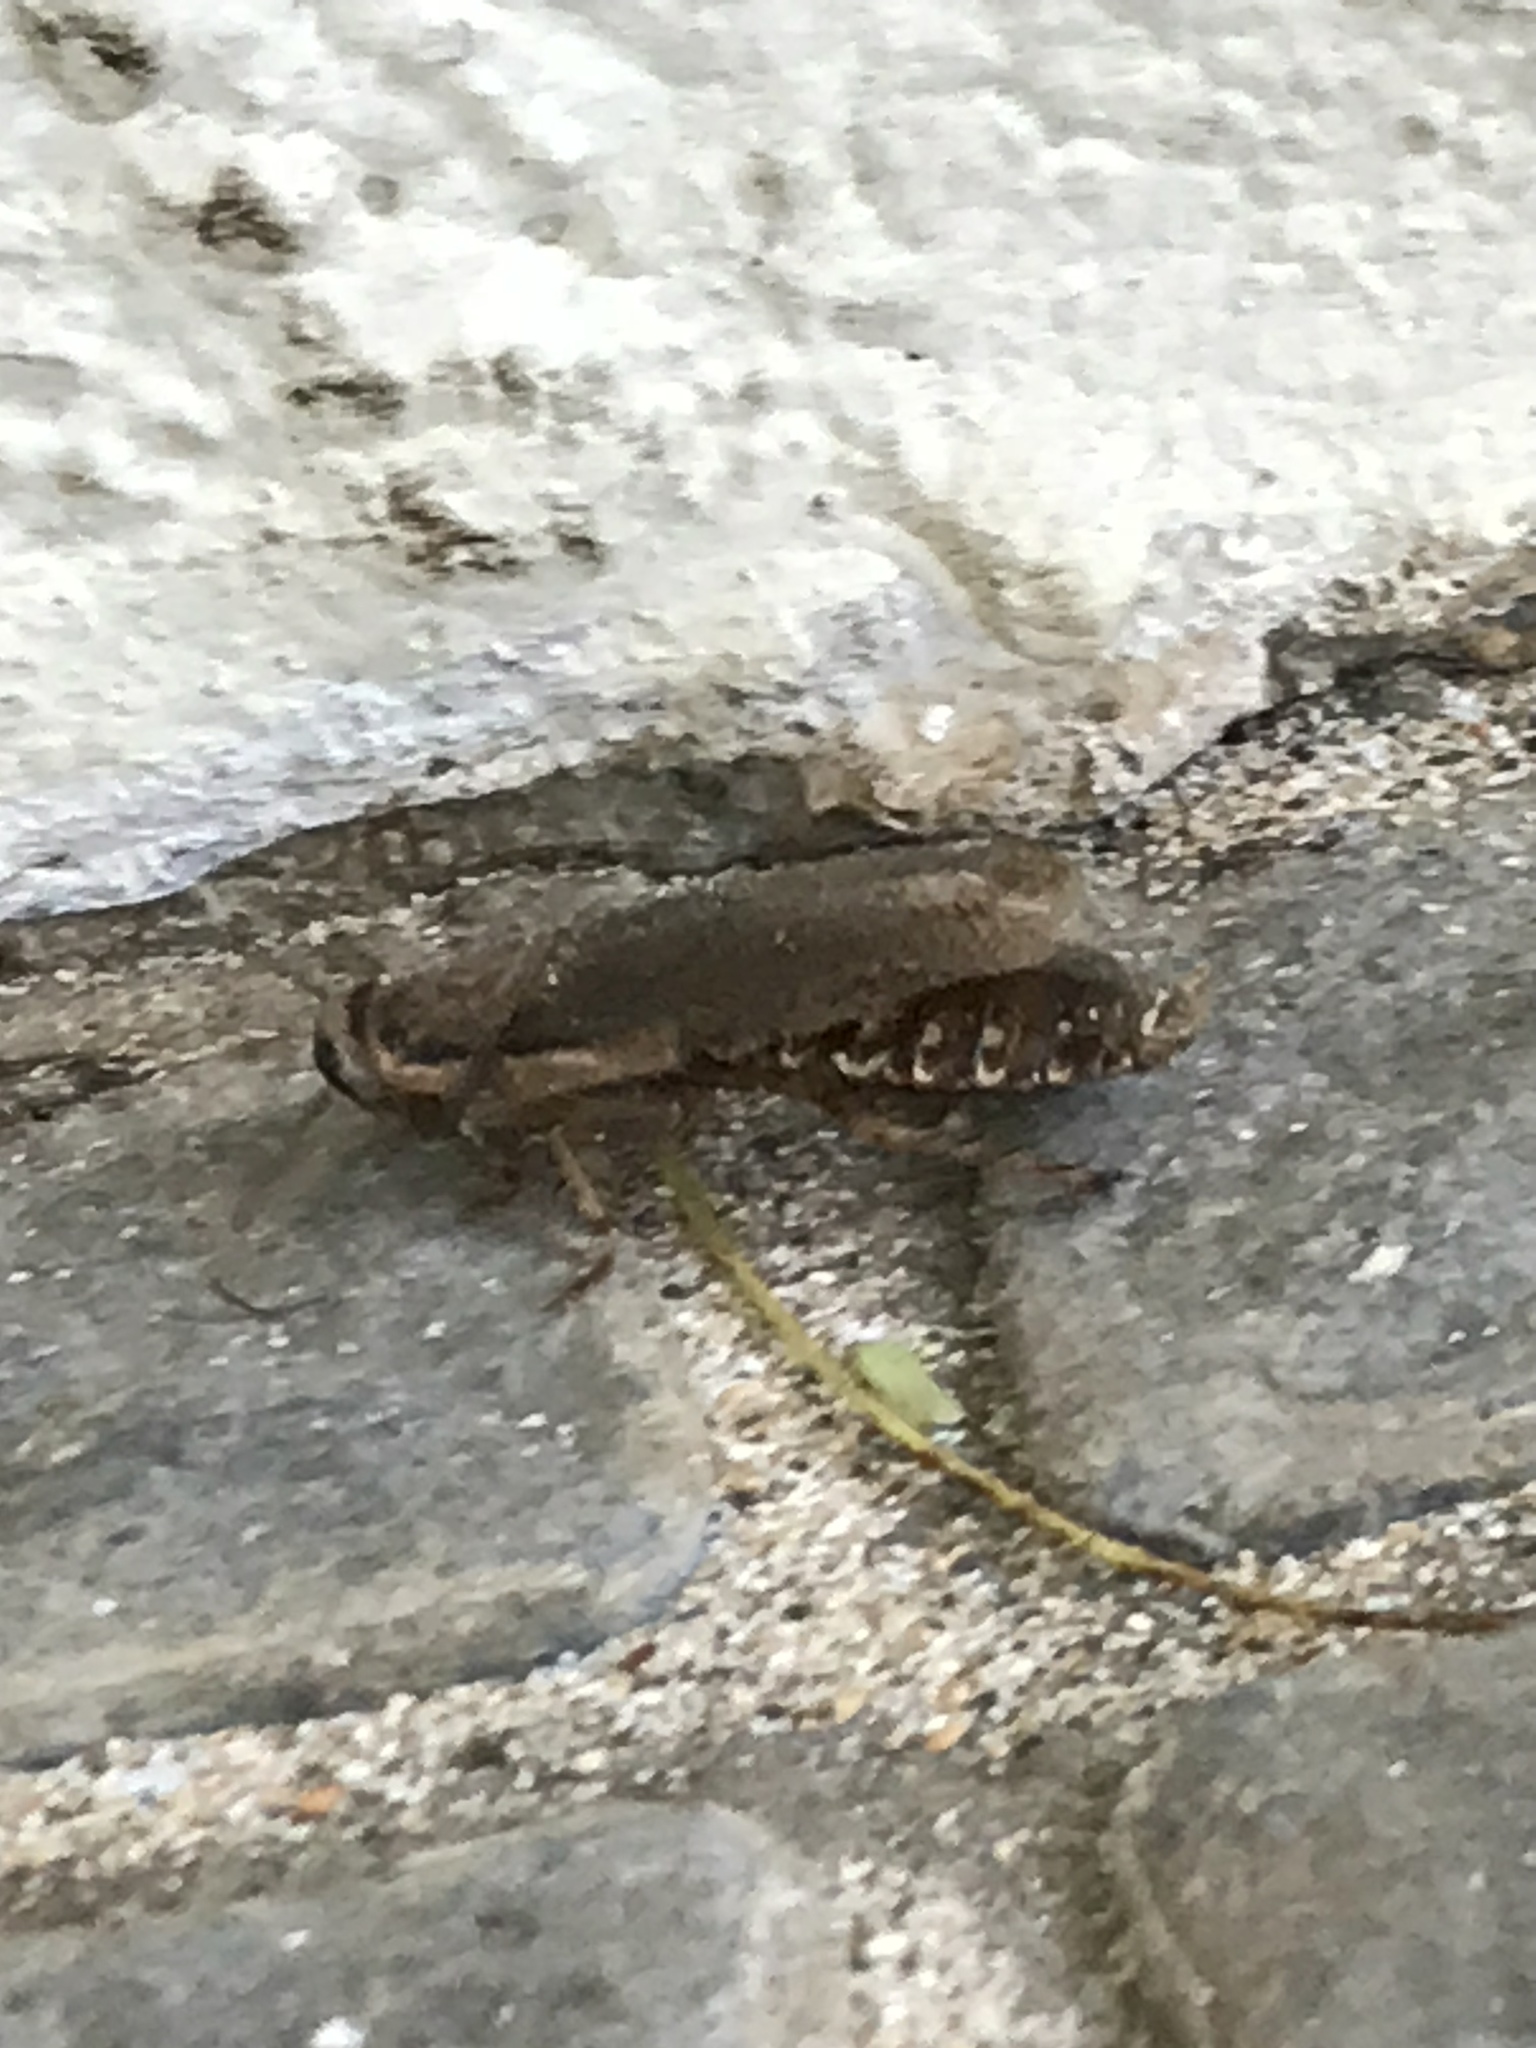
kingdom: Animalia
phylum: Arthropoda
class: Insecta
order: Blattodea
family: Blaberidae
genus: Nauphoeta
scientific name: Nauphoeta cinerea
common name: Lobster cockroach
